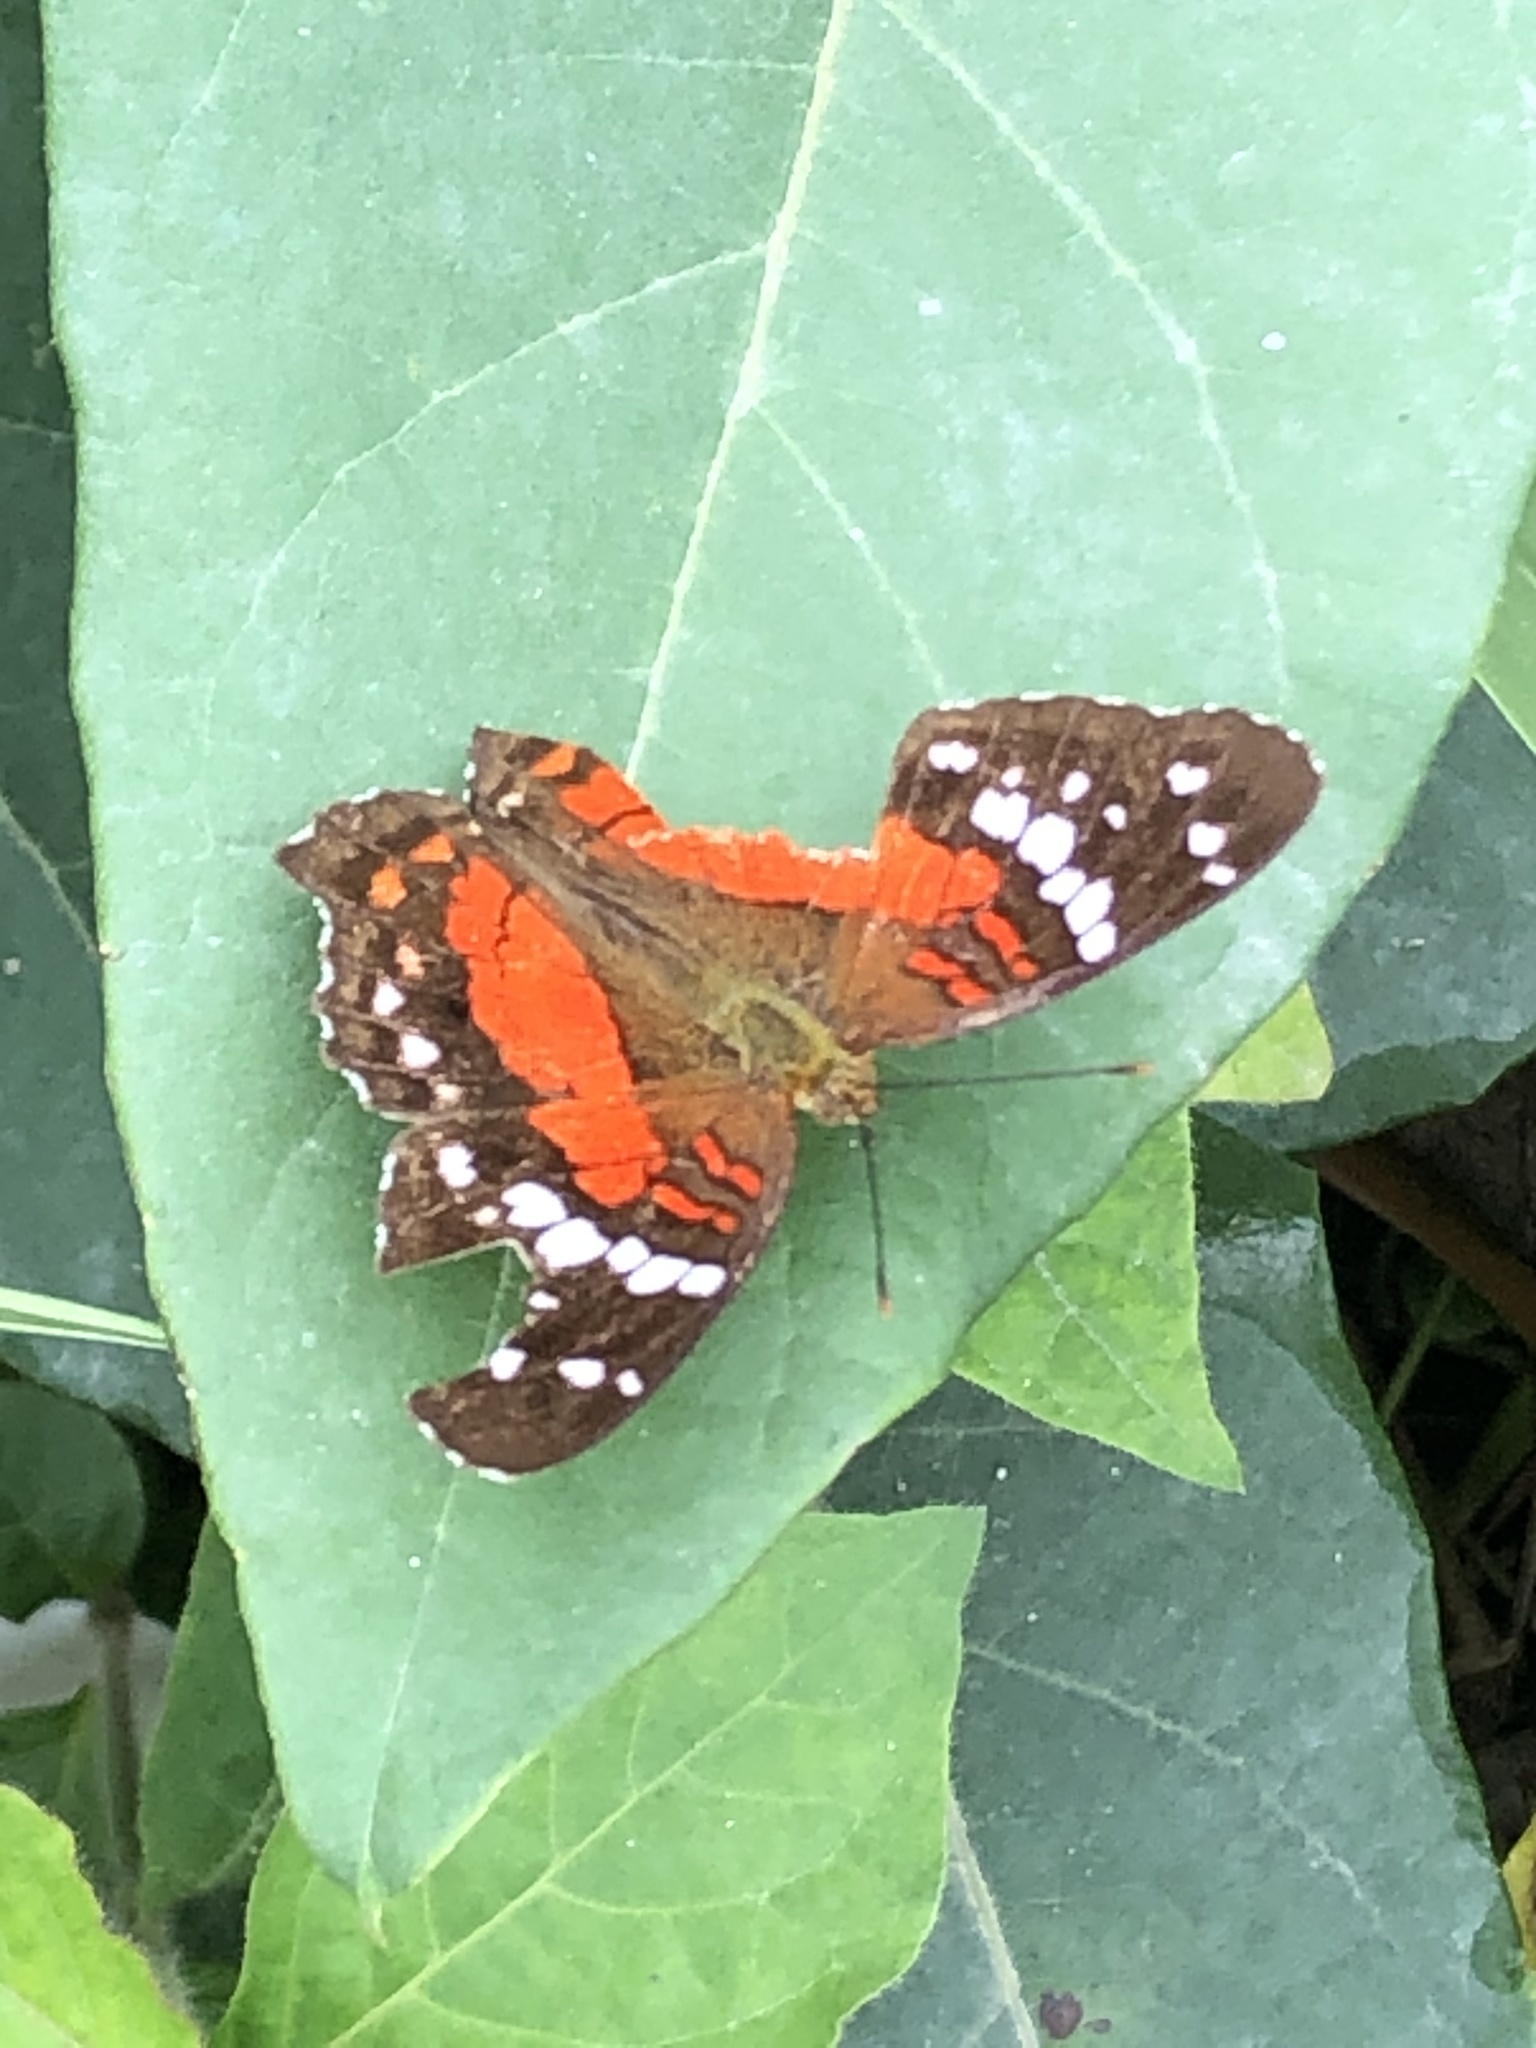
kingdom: Animalia
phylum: Arthropoda
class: Insecta
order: Lepidoptera
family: Nymphalidae
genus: Anartia
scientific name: Anartia amathea
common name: Red peacock
